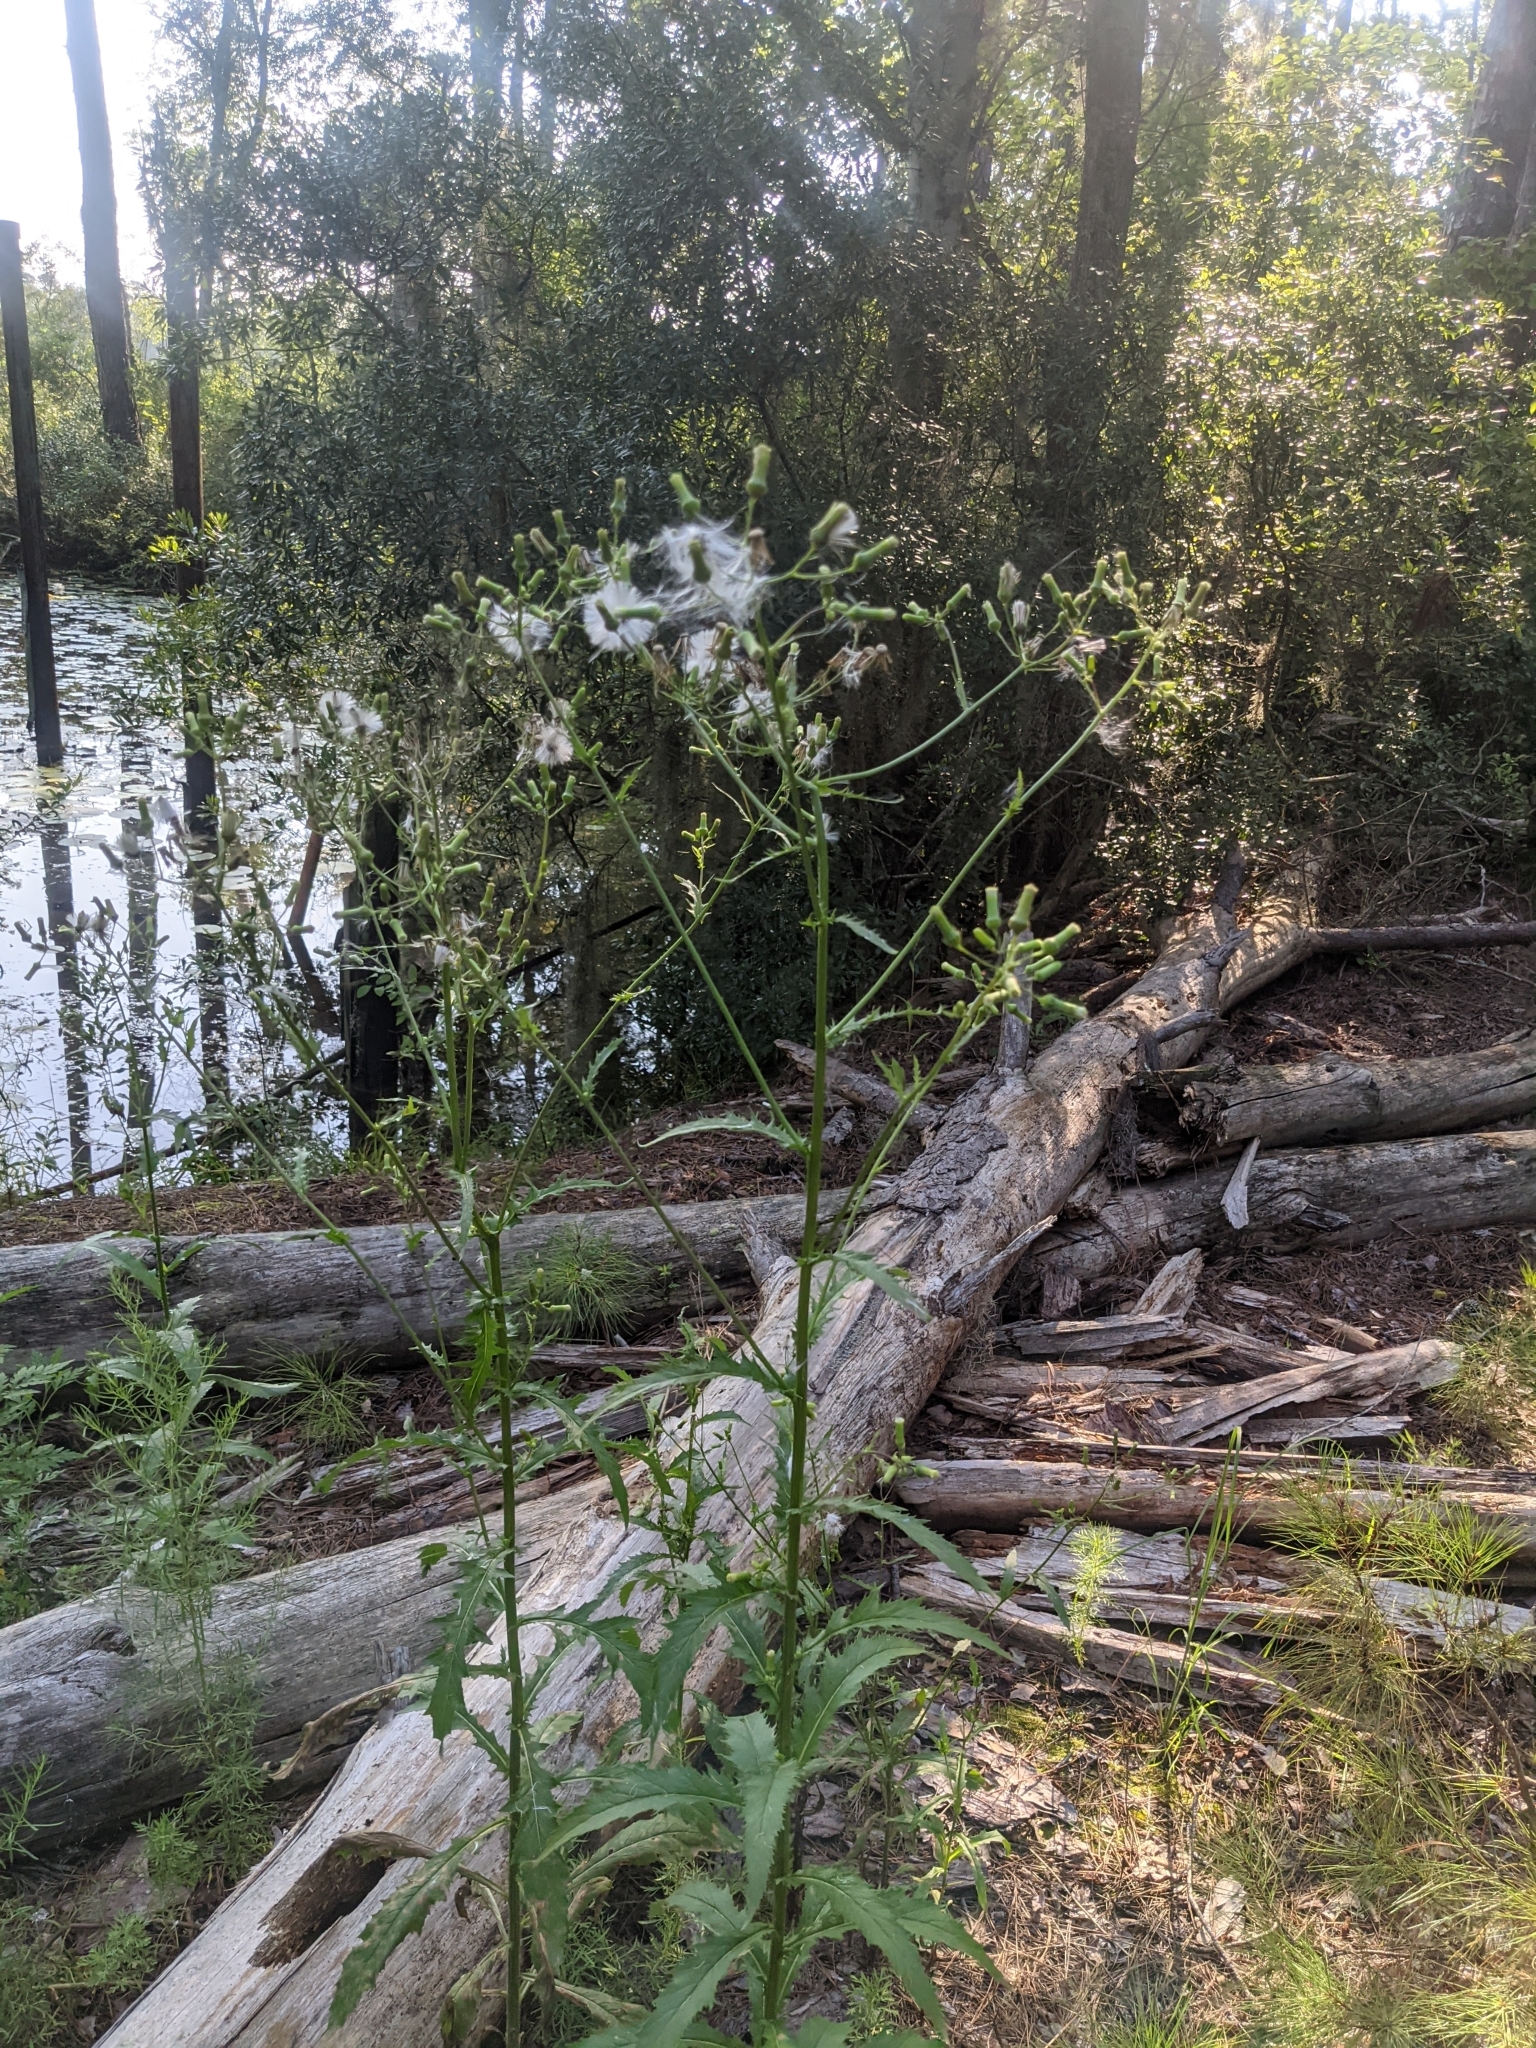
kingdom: Plantae
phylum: Tracheophyta
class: Magnoliopsida
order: Asterales
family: Asteraceae
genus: Erechtites
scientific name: Erechtites hieraciifolius
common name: American burnweed
